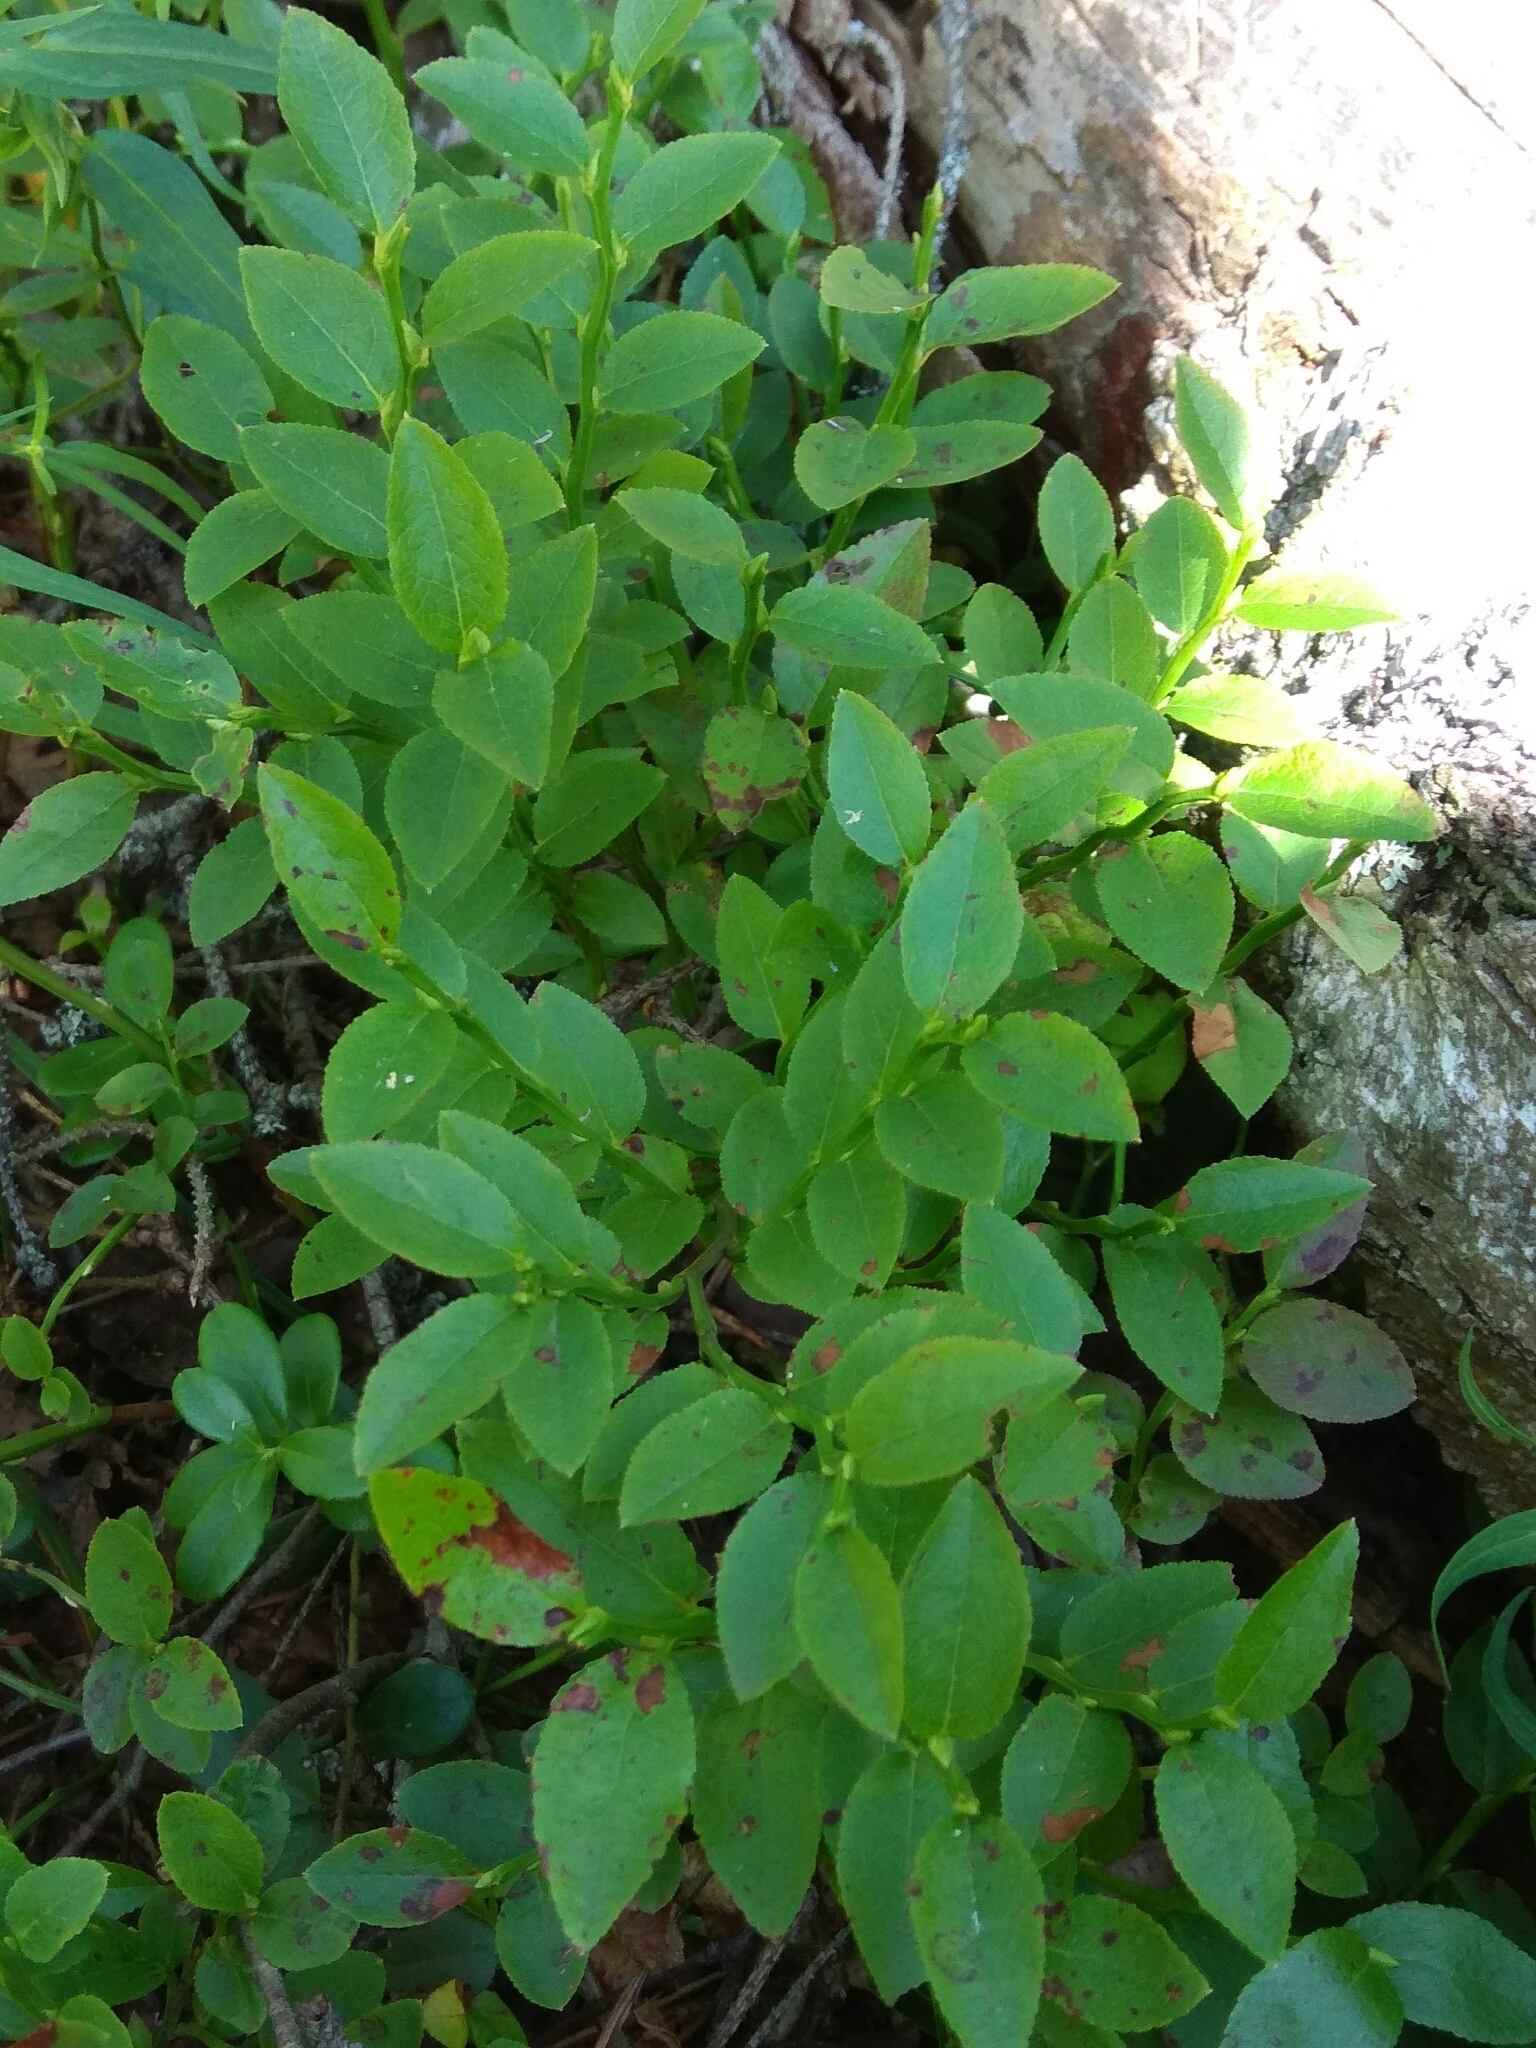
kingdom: Plantae
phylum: Tracheophyta
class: Magnoliopsida
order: Ericales
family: Ericaceae
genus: Vaccinium
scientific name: Vaccinium myrtillus
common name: Bilberry
